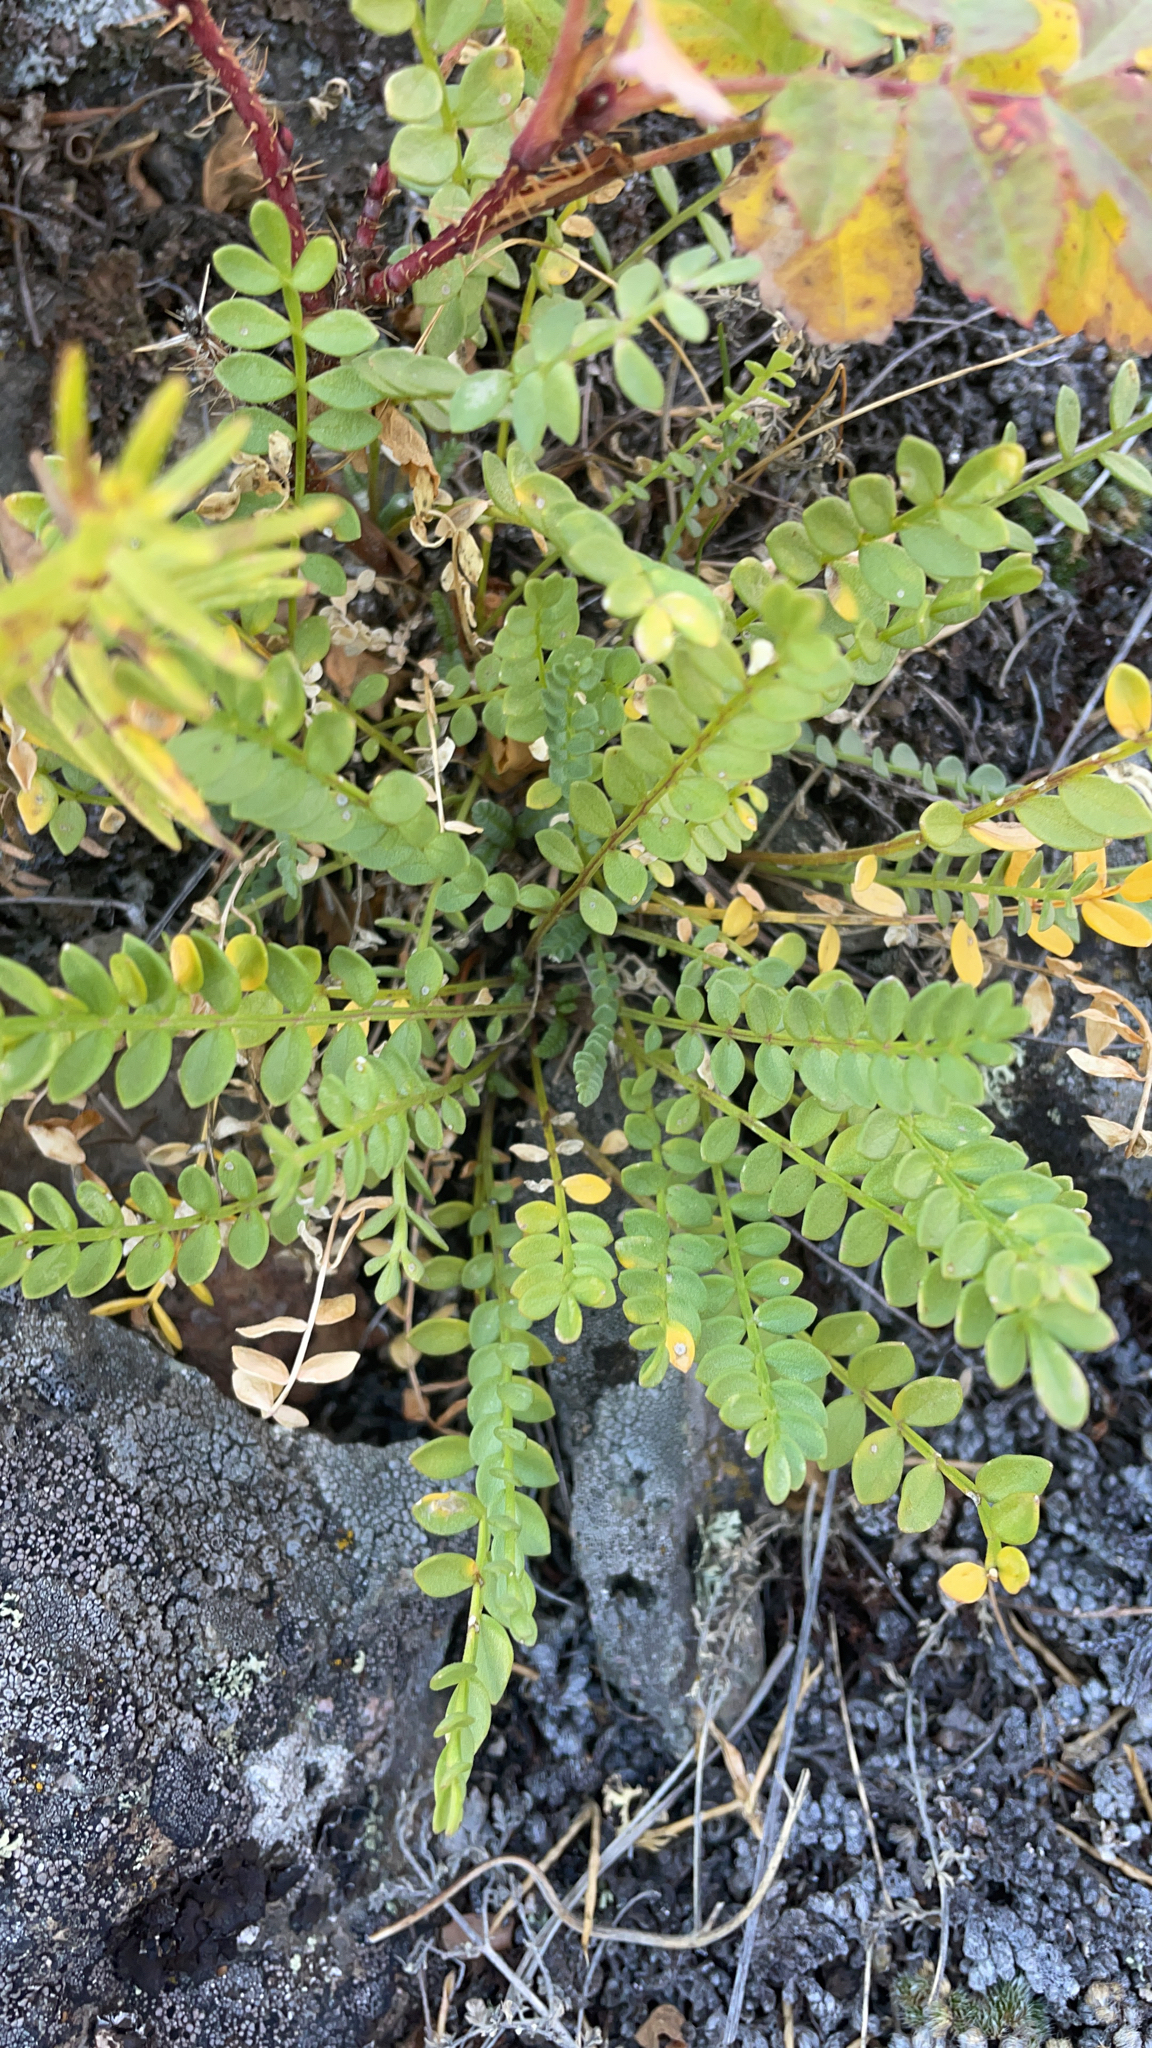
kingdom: Plantae
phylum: Tracheophyta
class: Magnoliopsida
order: Ericales
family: Polemoniaceae
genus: Polemonium
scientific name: Polemonium pulcherrimum
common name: Short jacob's-ladder
